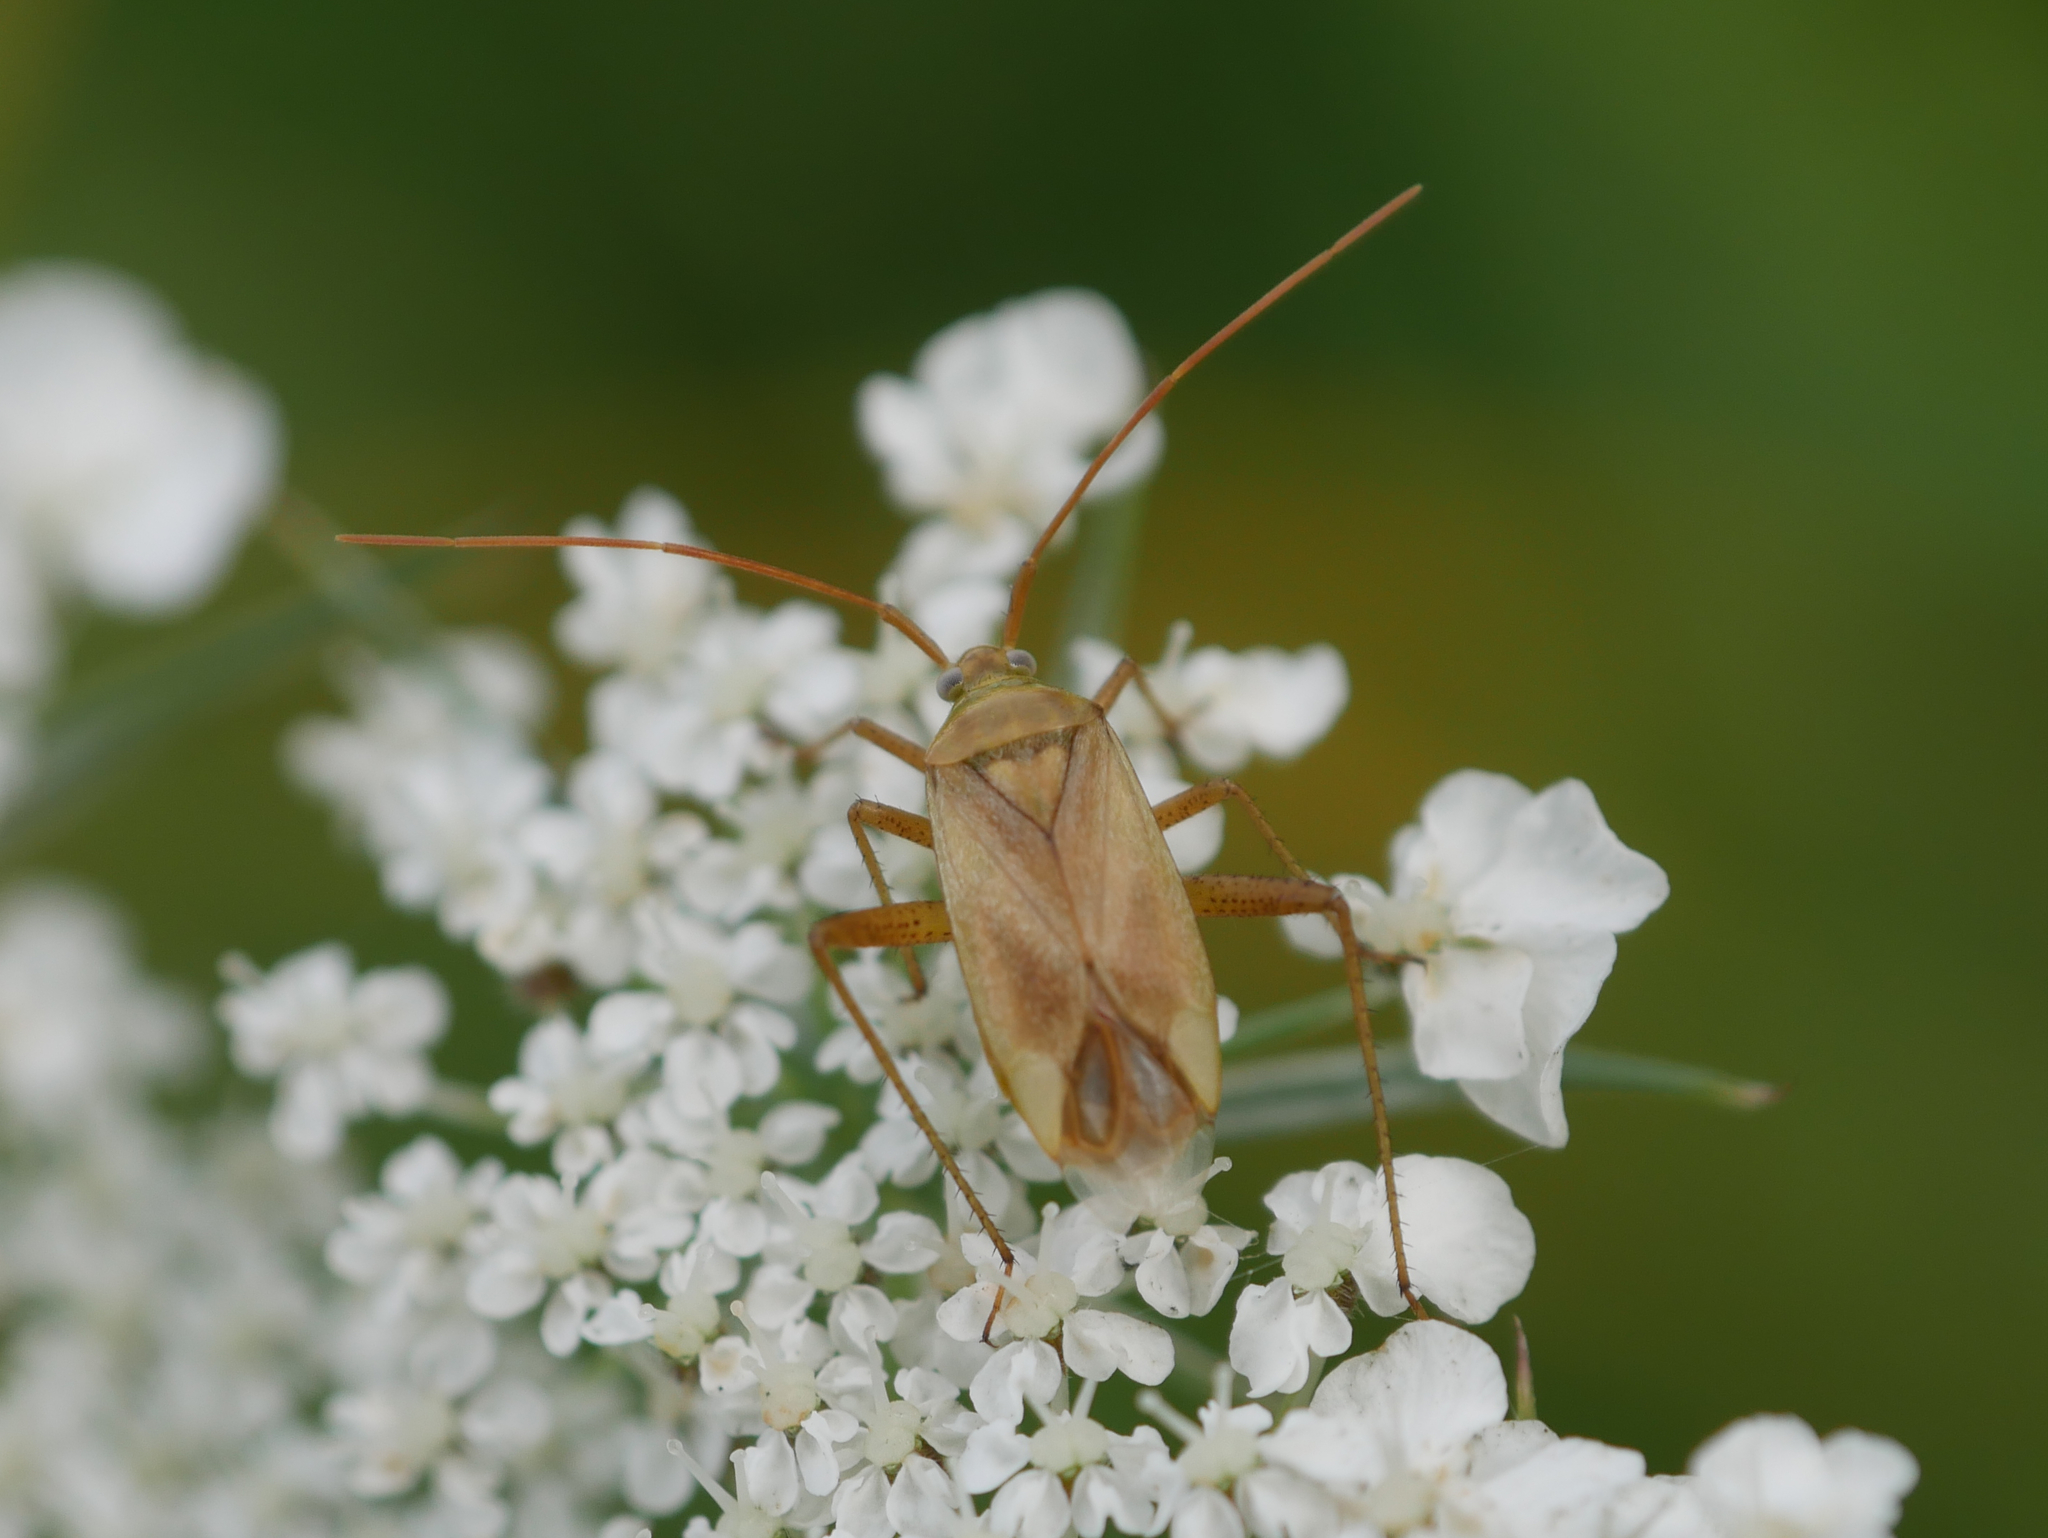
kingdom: Animalia
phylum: Arthropoda
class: Insecta
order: Hemiptera
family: Miridae
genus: Adelphocoris
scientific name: Adelphocoris lineolatus
